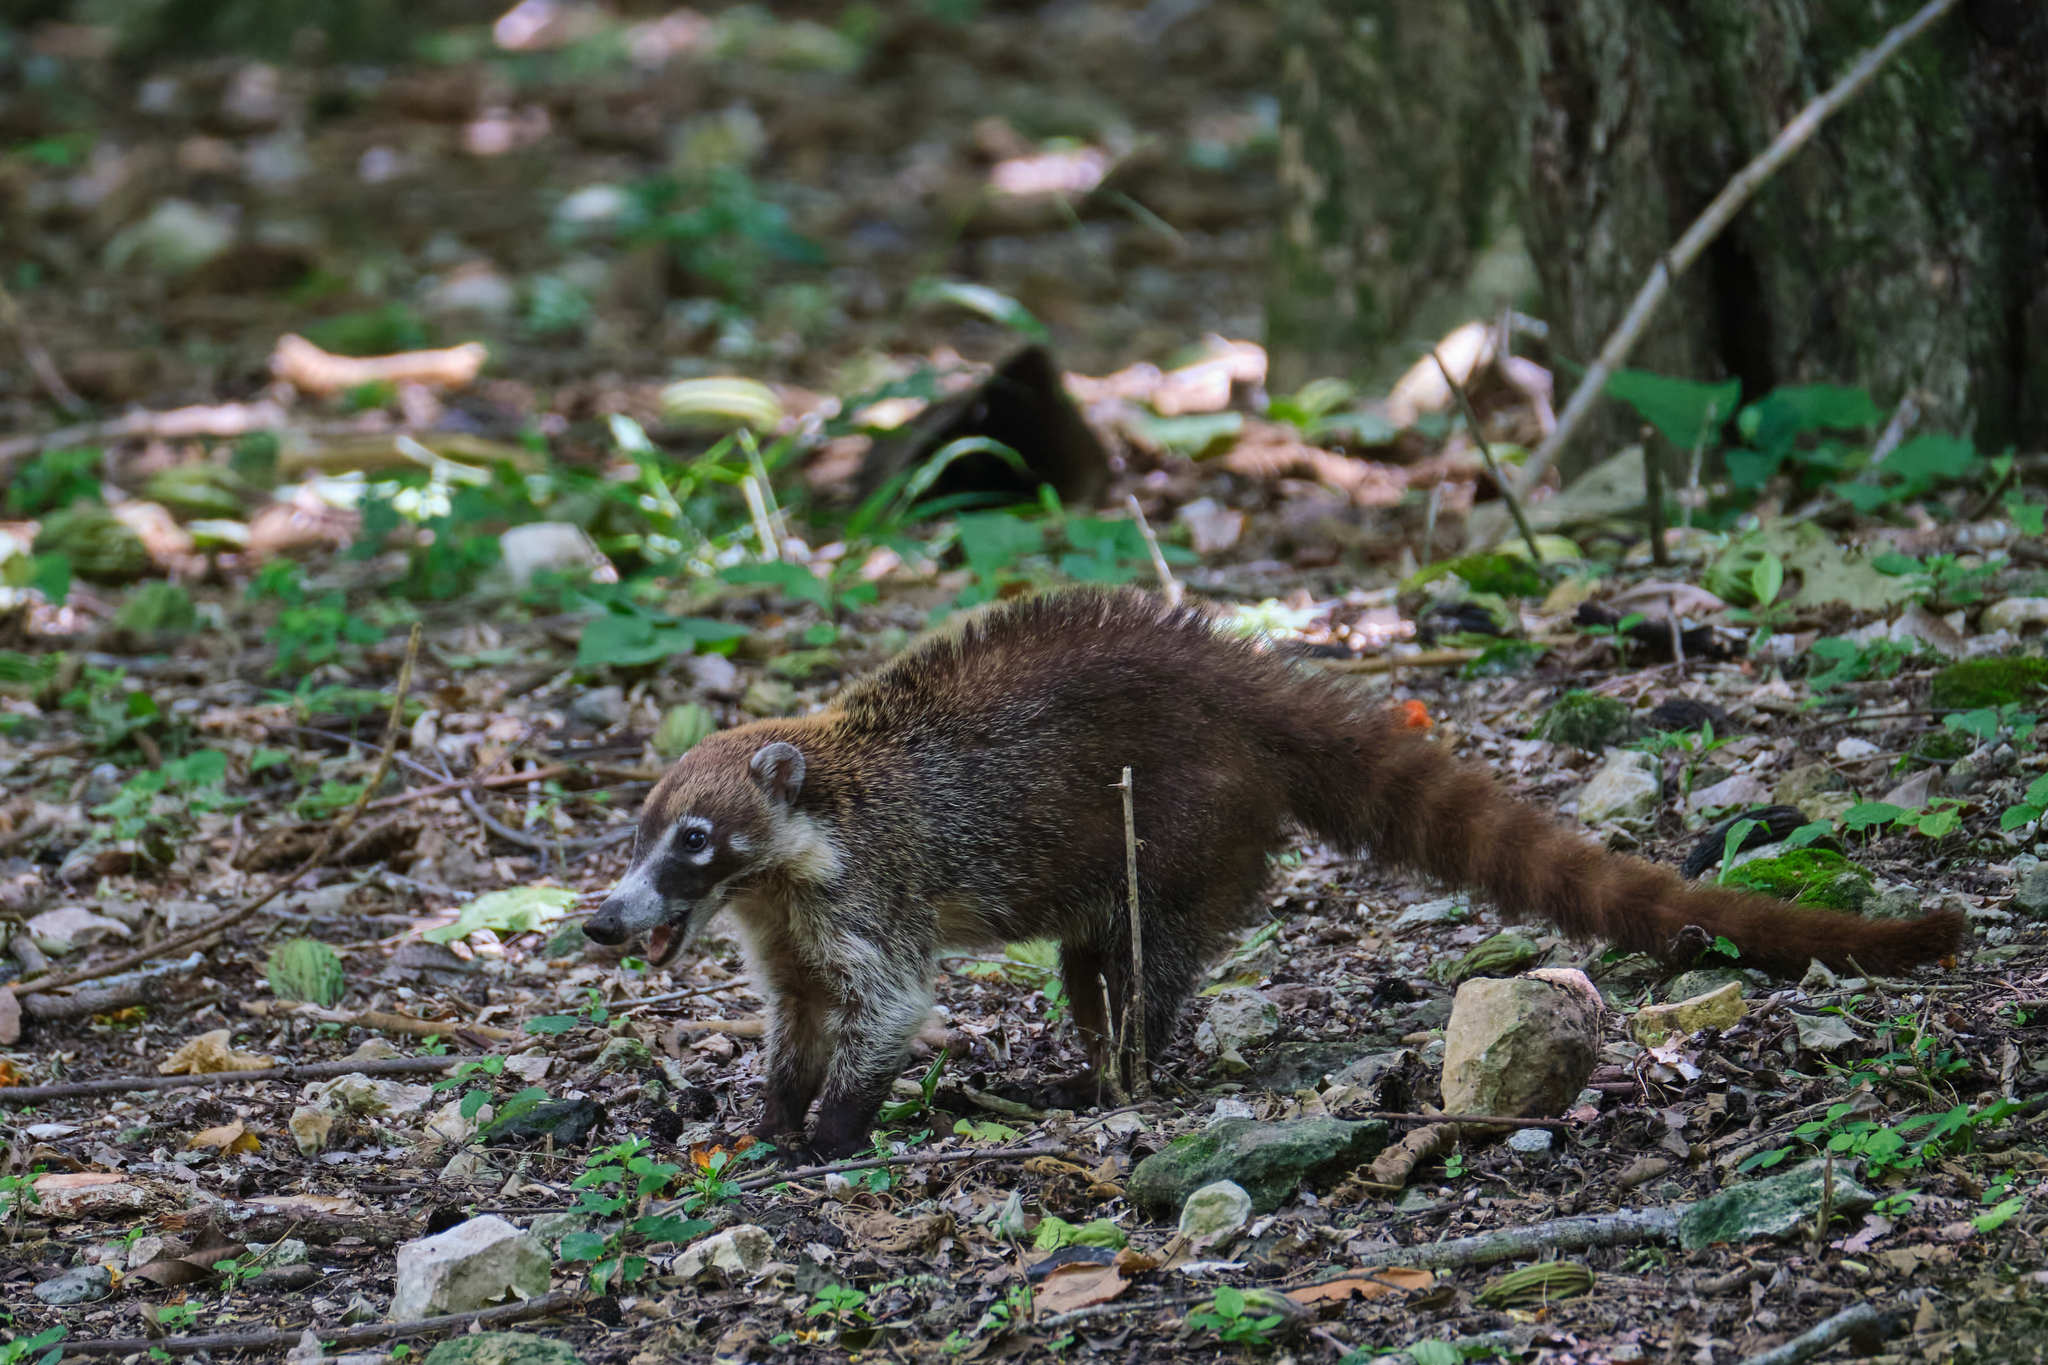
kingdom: Animalia
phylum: Chordata
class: Mammalia
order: Carnivora
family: Procyonidae
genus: Nasua
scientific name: Nasua narica
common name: White-nosed coati
